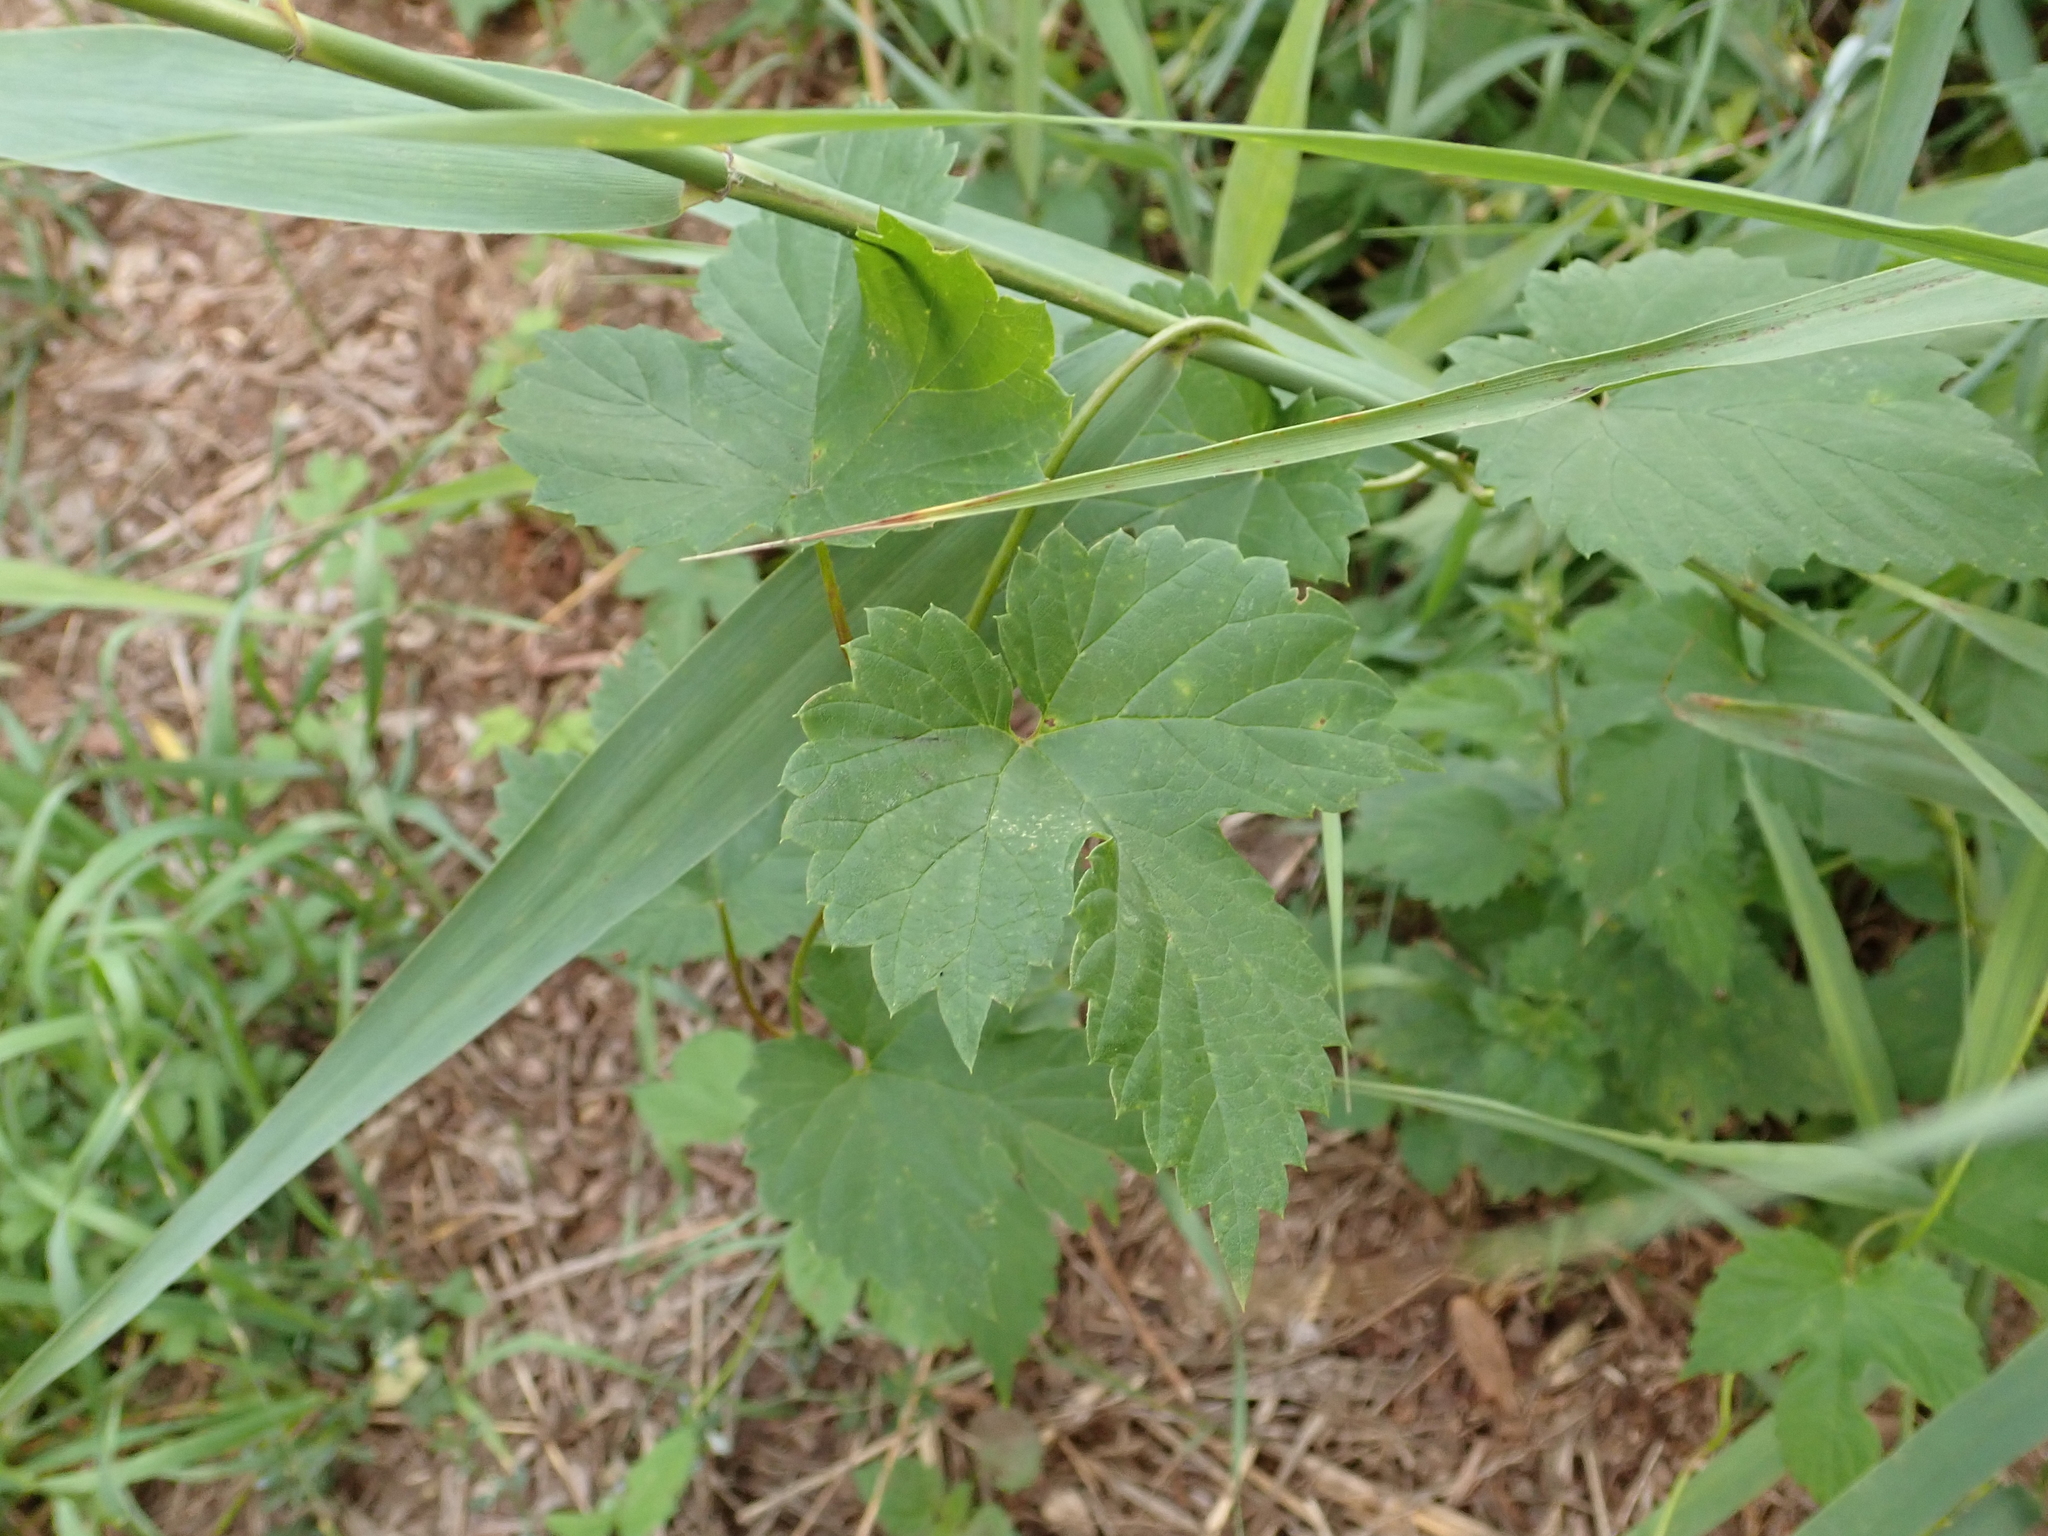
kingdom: Plantae
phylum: Tracheophyta
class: Magnoliopsida
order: Rosales
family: Cannabaceae
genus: Humulus
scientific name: Humulus lupulus
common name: Hop
